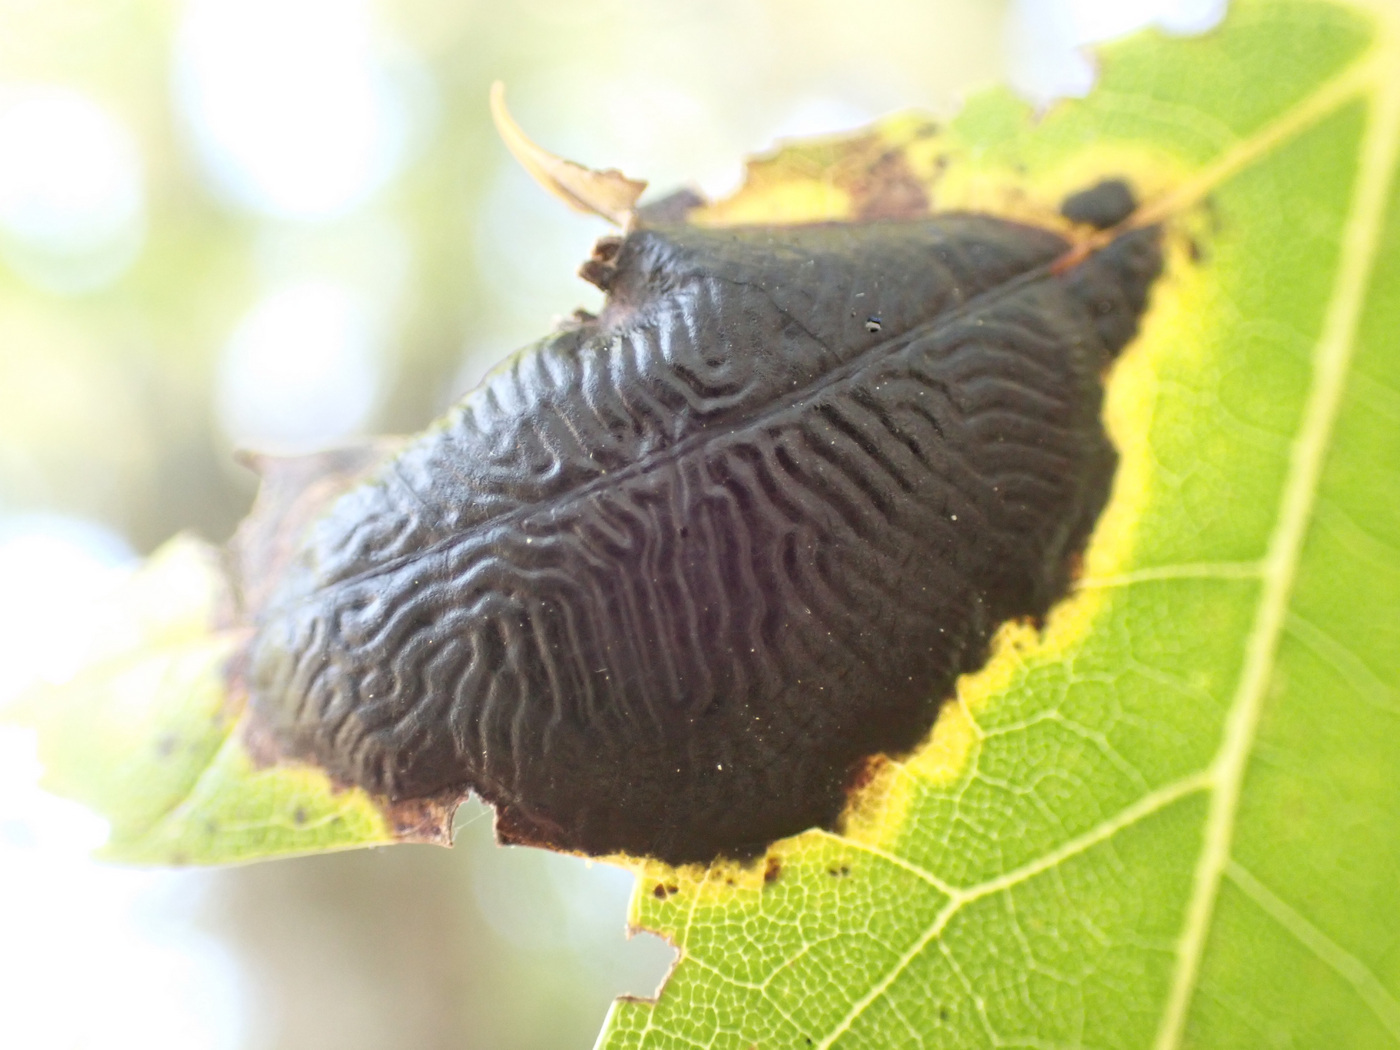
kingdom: Fungi
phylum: Ascomycota
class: Leotiomycetes
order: Rhytismatales
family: Rhytismataceae
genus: Rhytisma
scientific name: Rhytisma americanum
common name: American tar spot
